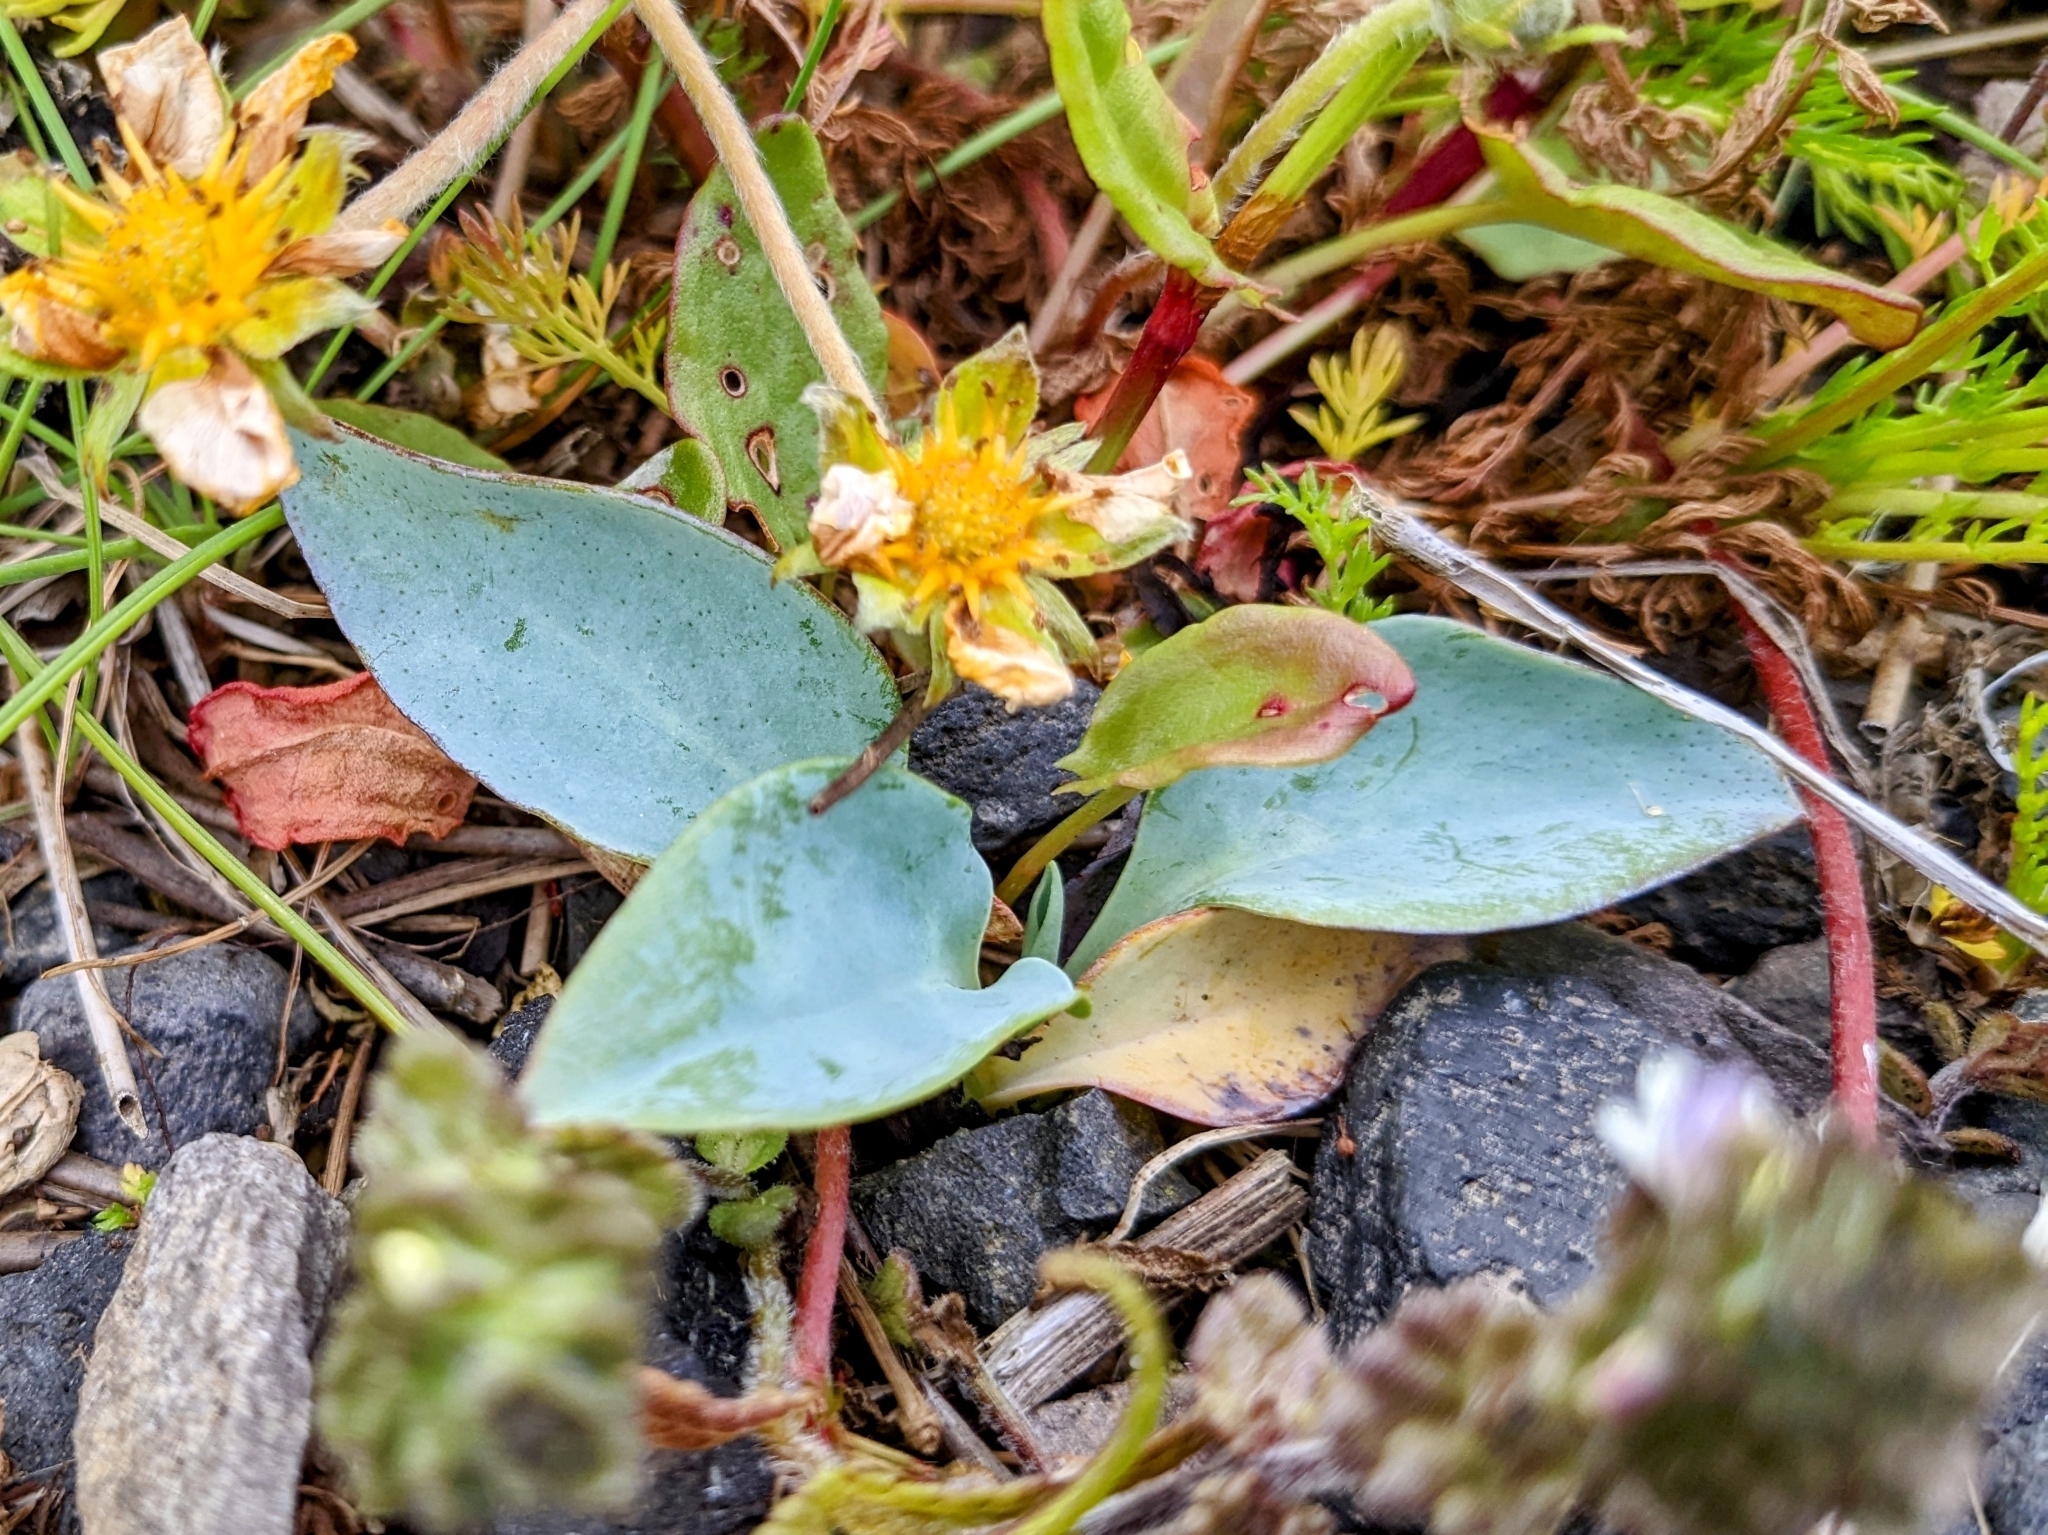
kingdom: Plantae
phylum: Tracheophyta
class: Magnoliopsida
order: Boraginales
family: Boraginaceae
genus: Mertensia
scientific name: Mertensia maritima
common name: Oysterplant
